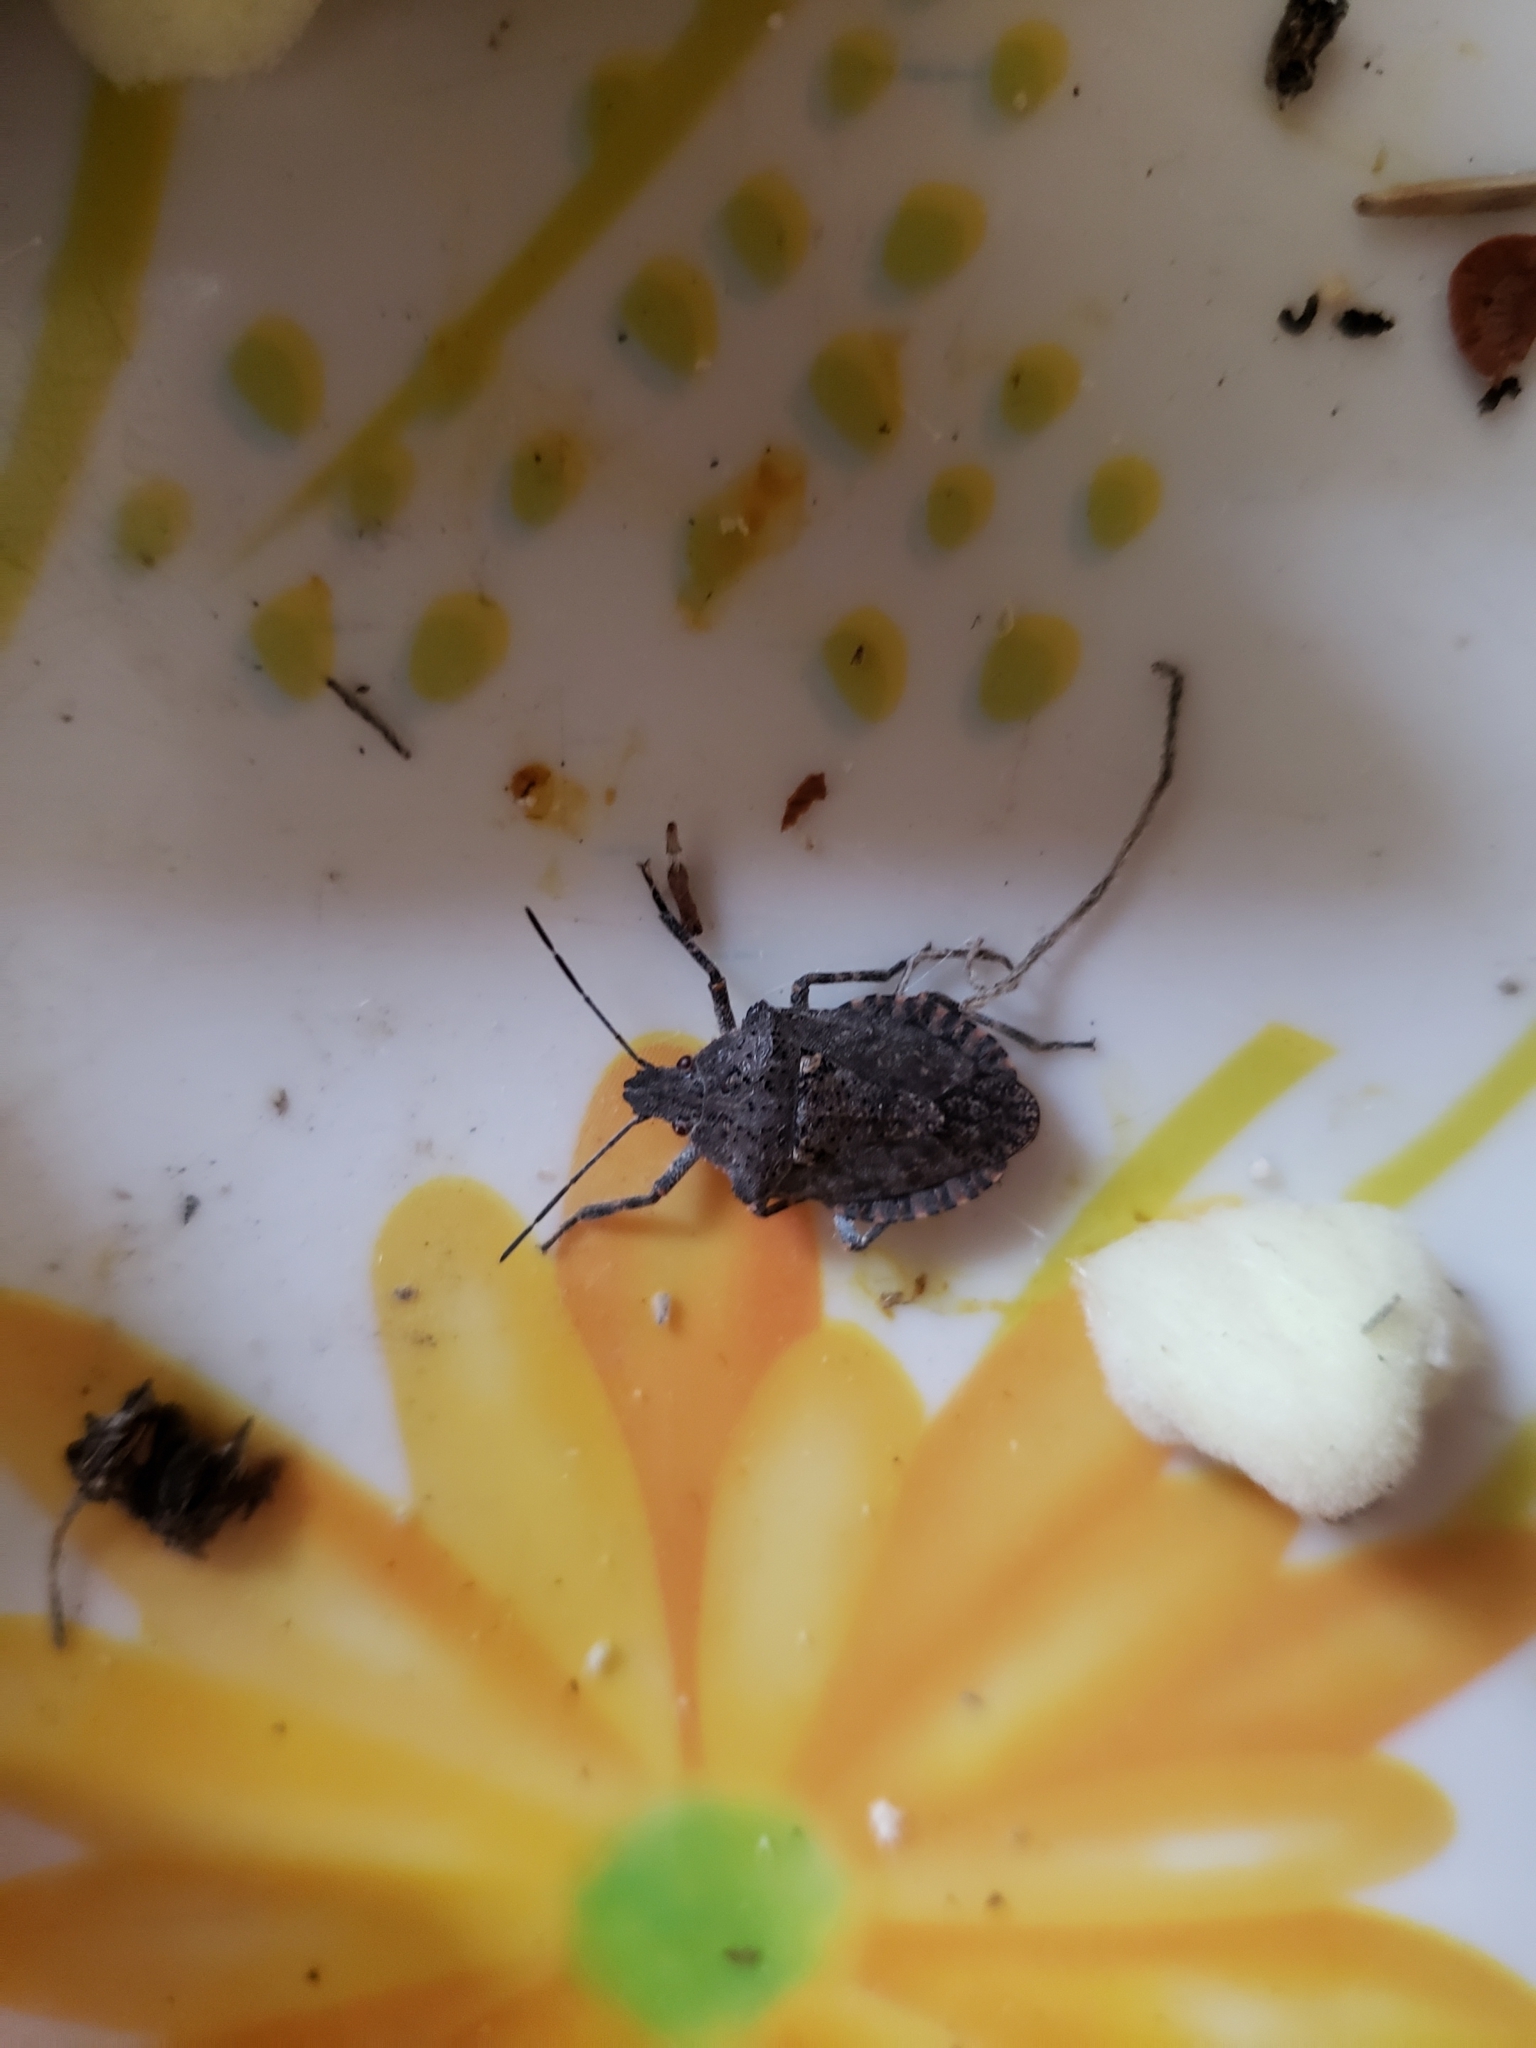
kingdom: Animalia
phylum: Arthropoda
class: Insecta
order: Hemiptera
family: Pentatomidae
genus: Brochymena
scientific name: Brochymena quadripustulata
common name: Four-humped stink bug
